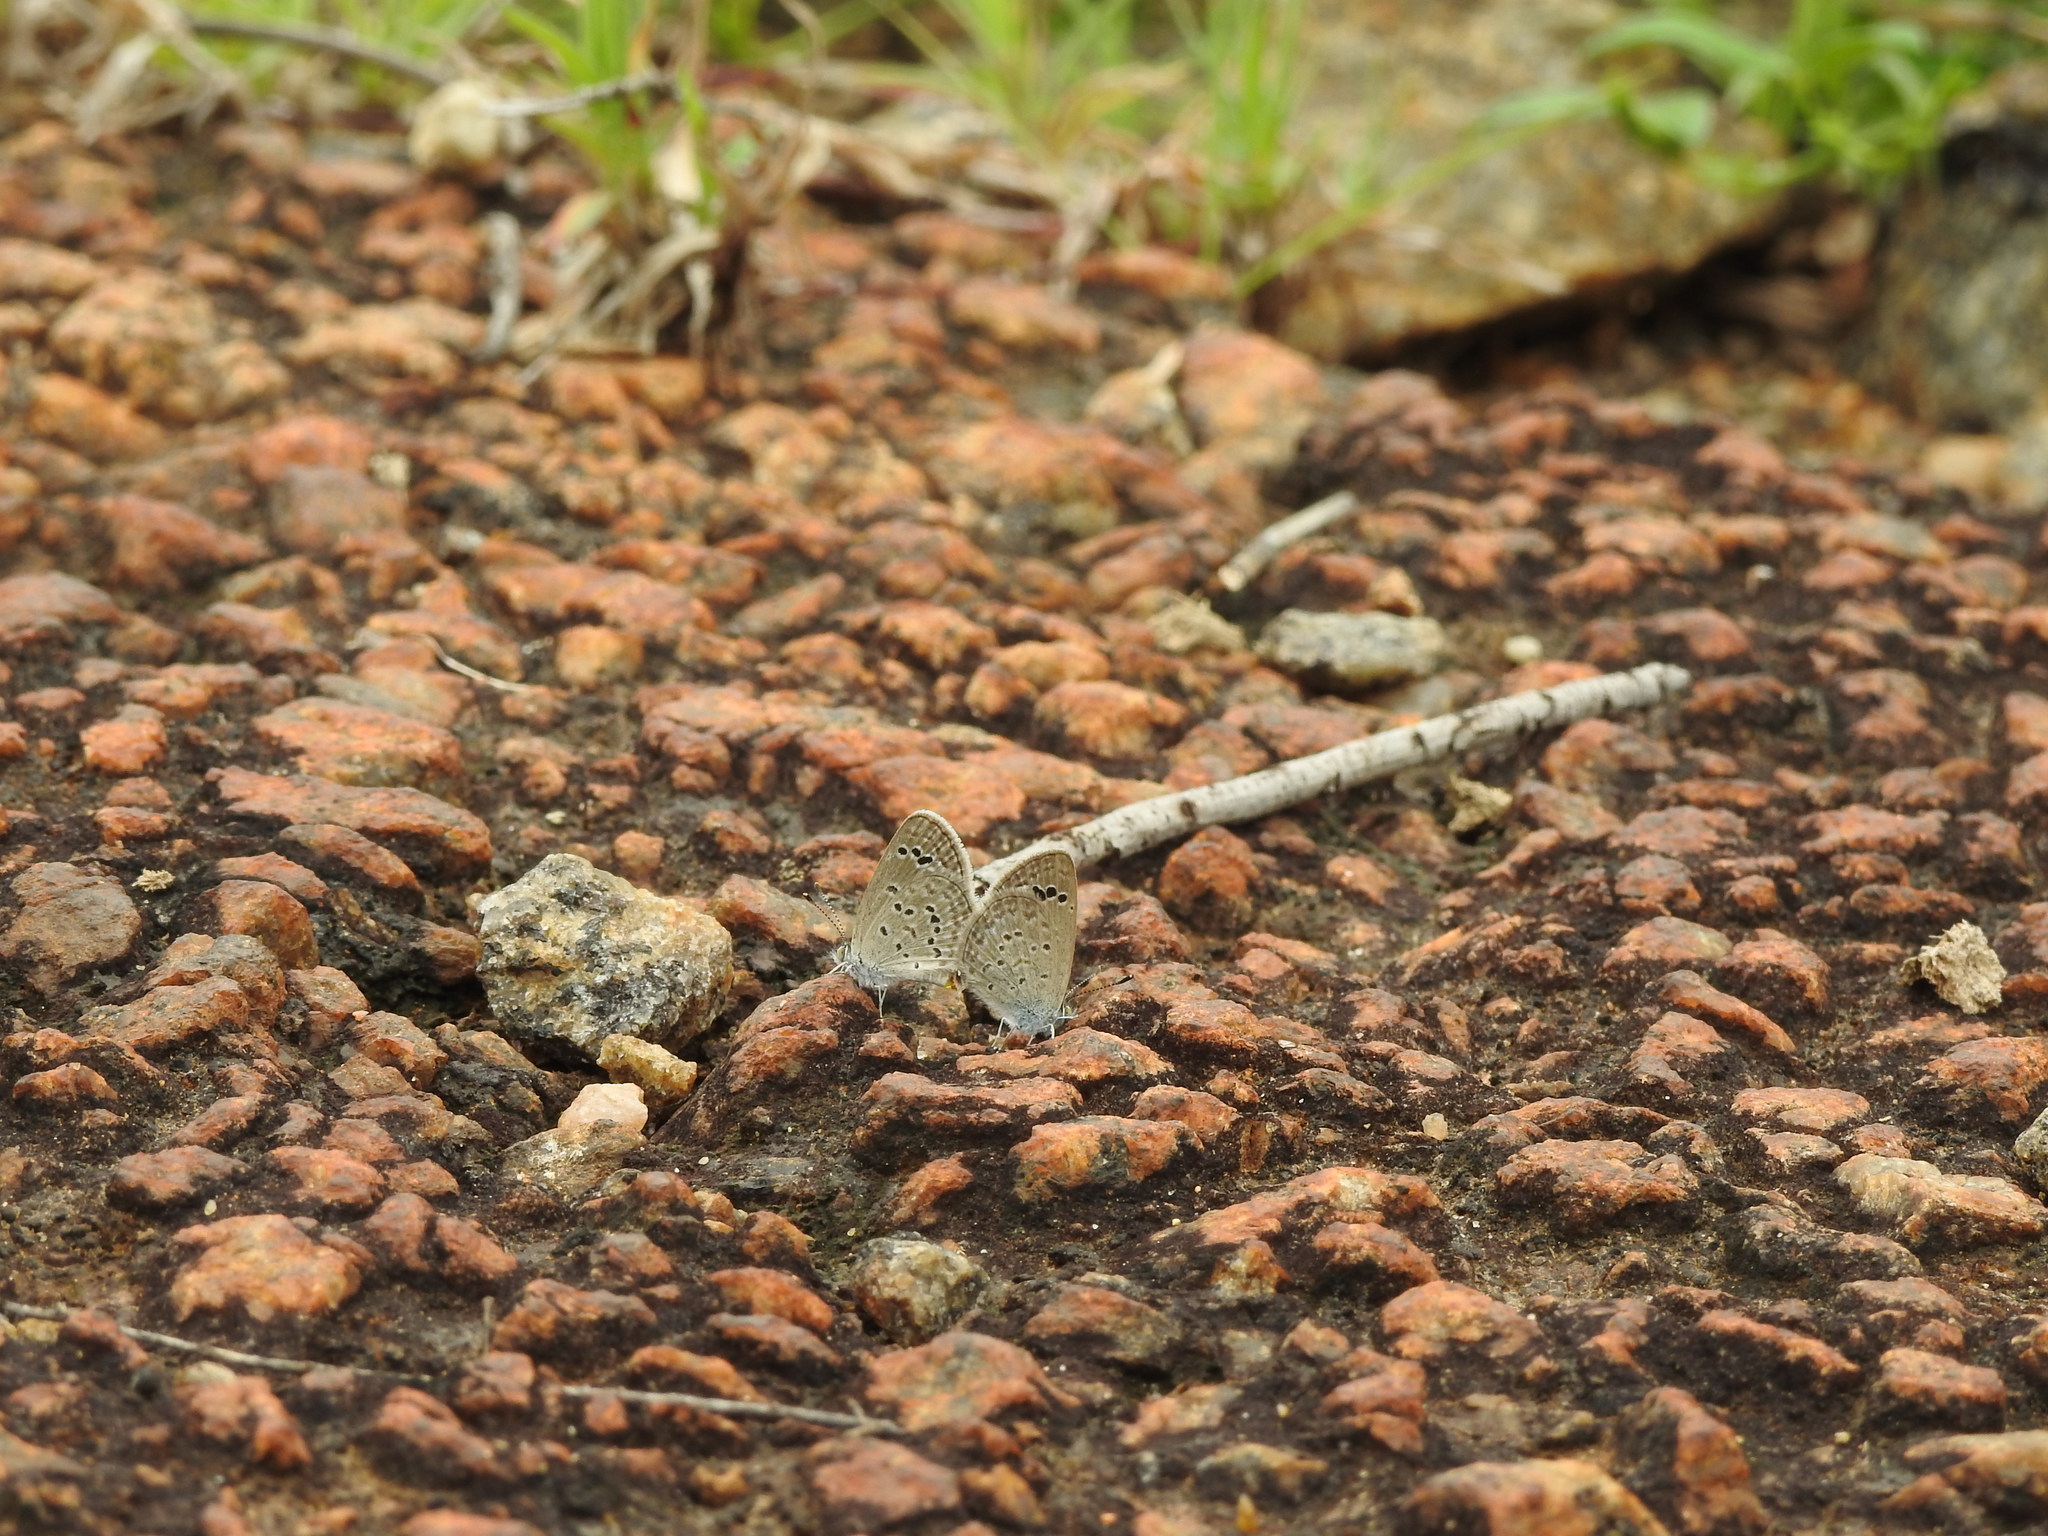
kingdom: Animalia
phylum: Arthropoda
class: Insecta
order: Lepidoptera
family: Lycaenidae
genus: Zizina
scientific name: Zizina otis
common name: Lesser grass blue
